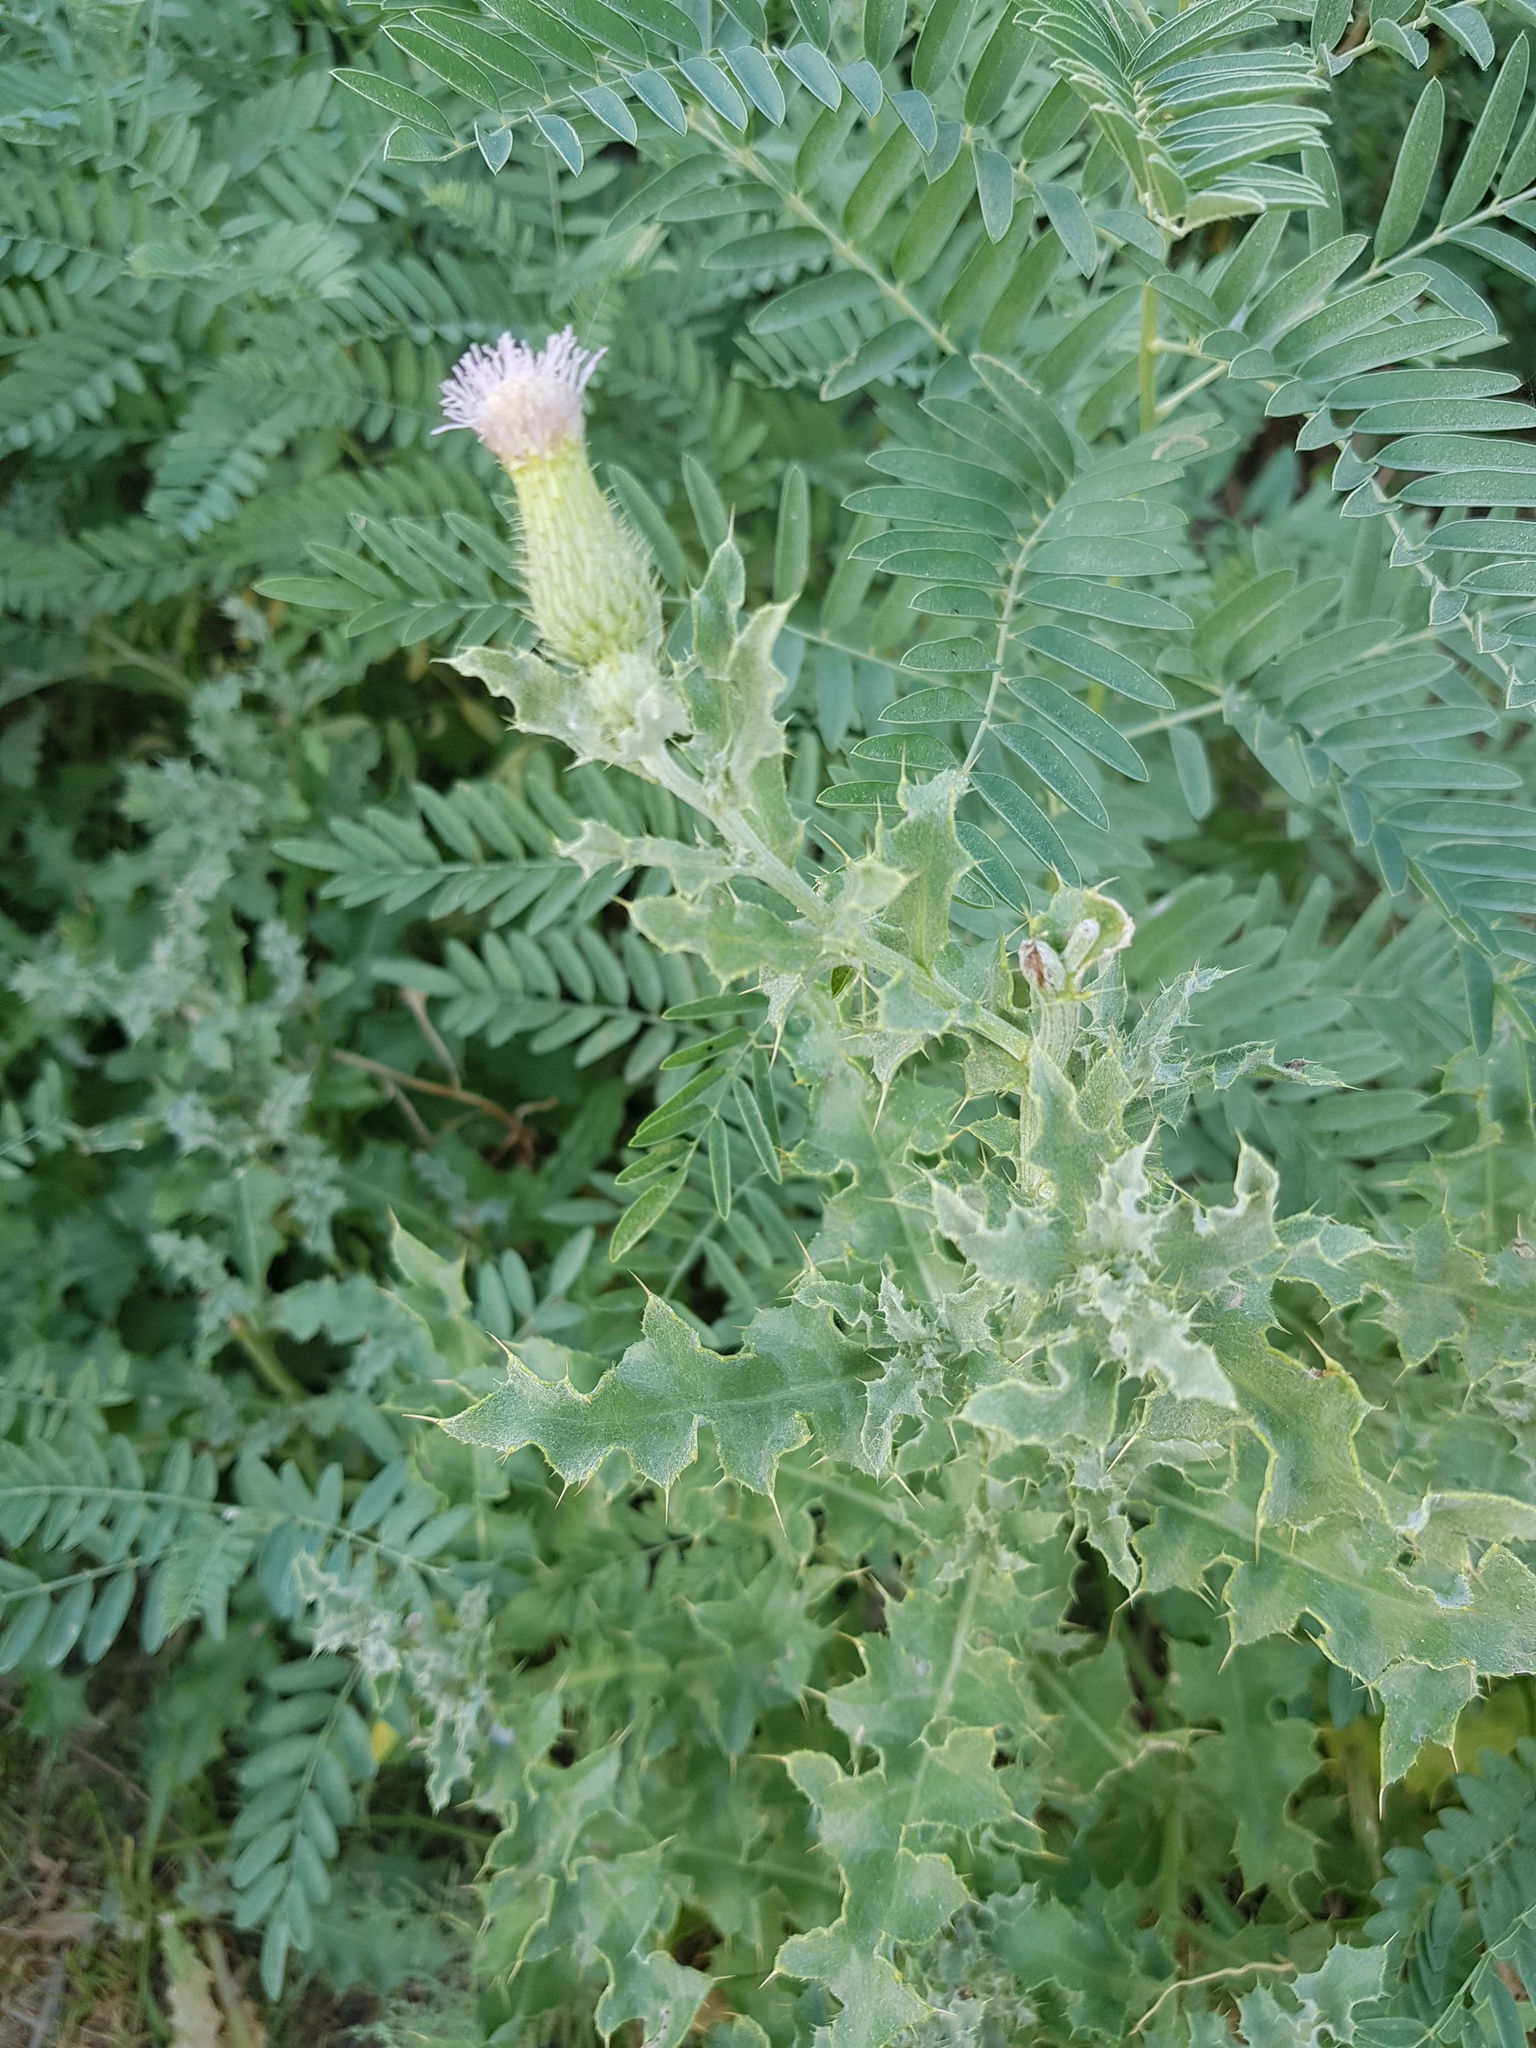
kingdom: Plantae
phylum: Tracheophyta
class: Magnoliopsida
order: Asterales
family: Asteraceae
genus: Cirsium
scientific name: Cirsium arvense
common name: Creeping thistle
